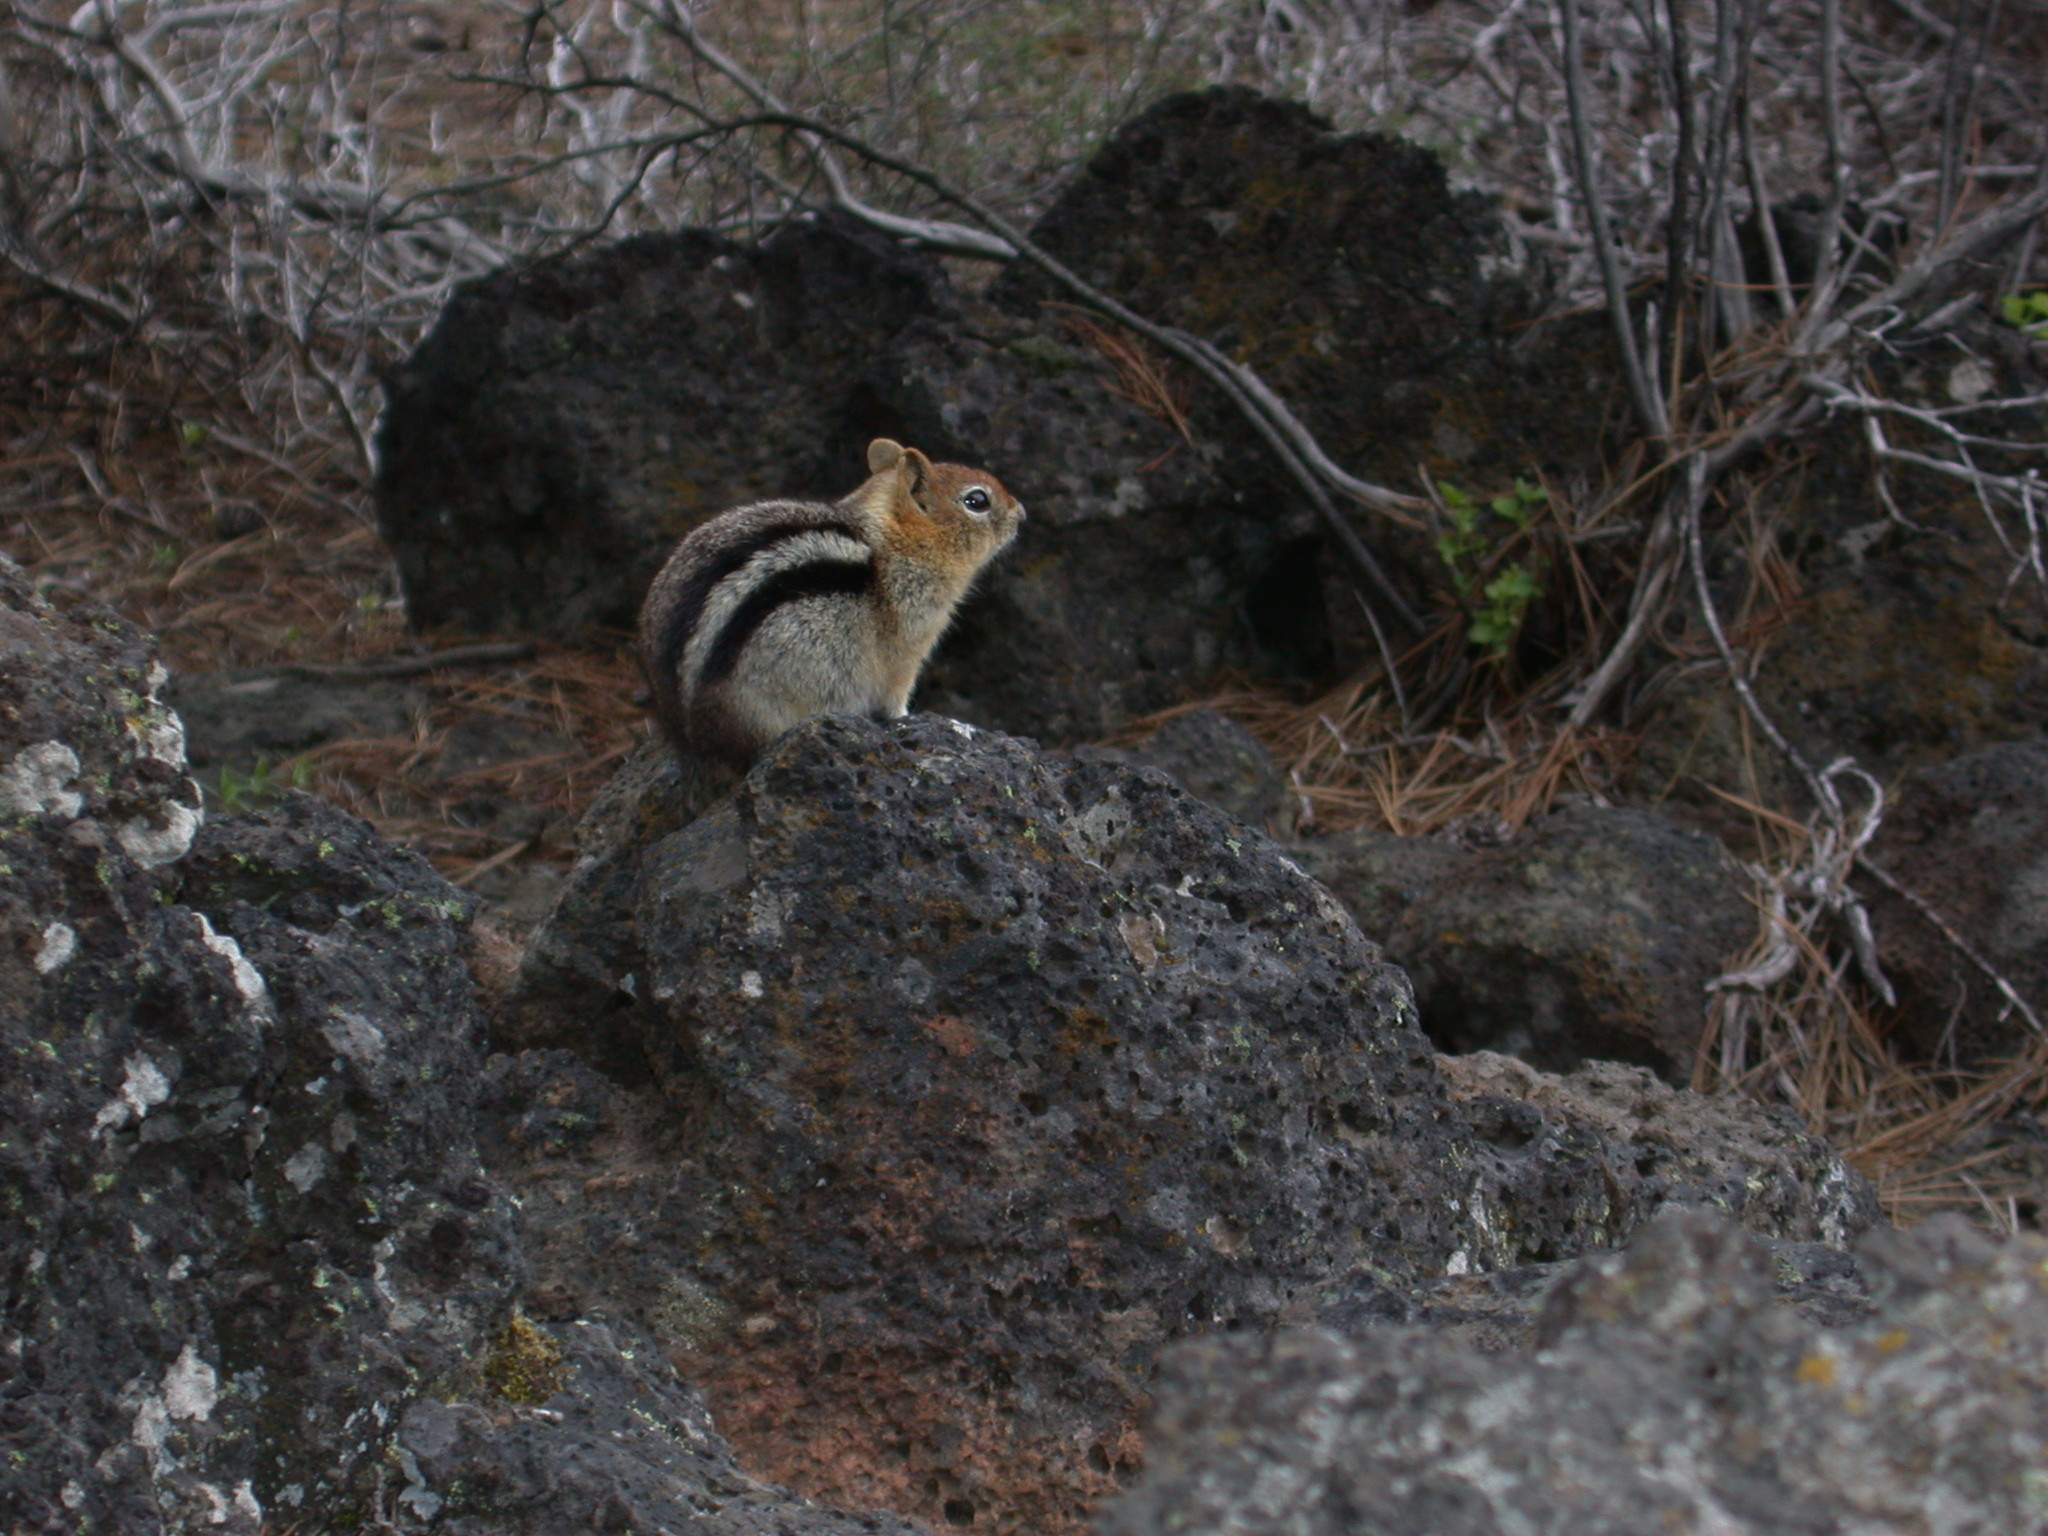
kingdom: Animalia
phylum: Chordata
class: Mammalia
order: Rodentia
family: Sciuridae
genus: Callospermophilus
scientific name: Callospermophilus lateralis
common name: Golden-mantled ground squirrel
